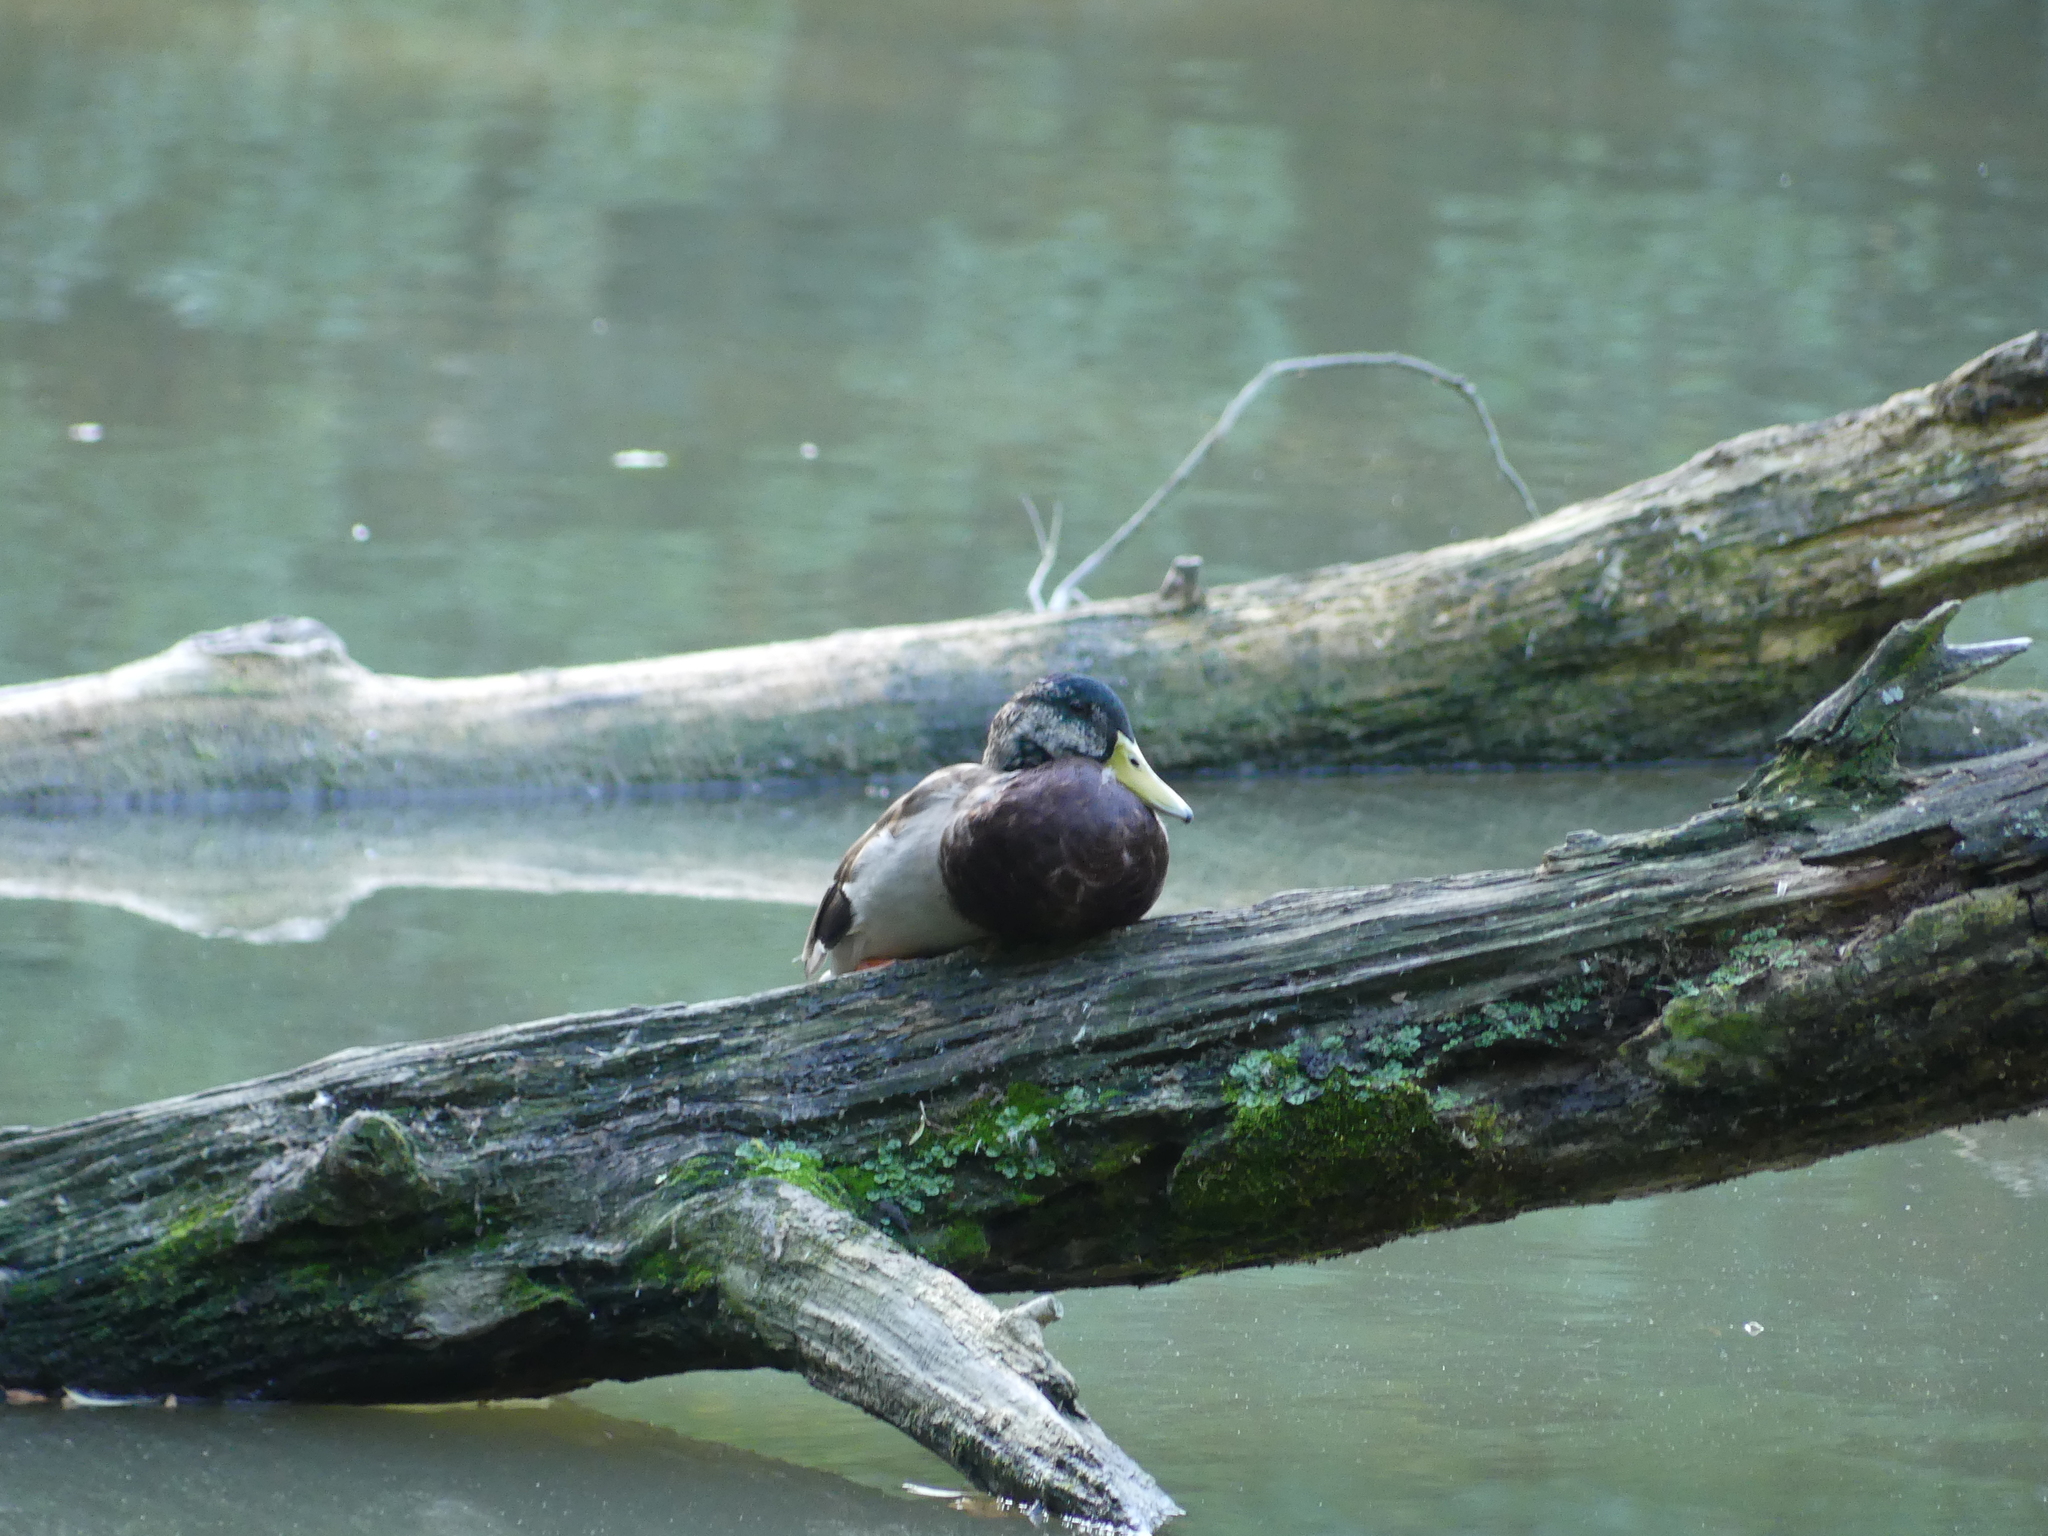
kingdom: Animalia
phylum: Chordata
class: Aves
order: Anseriformes
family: Anatidae
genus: Anas
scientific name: Anas platyrhynchos
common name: Mallard
